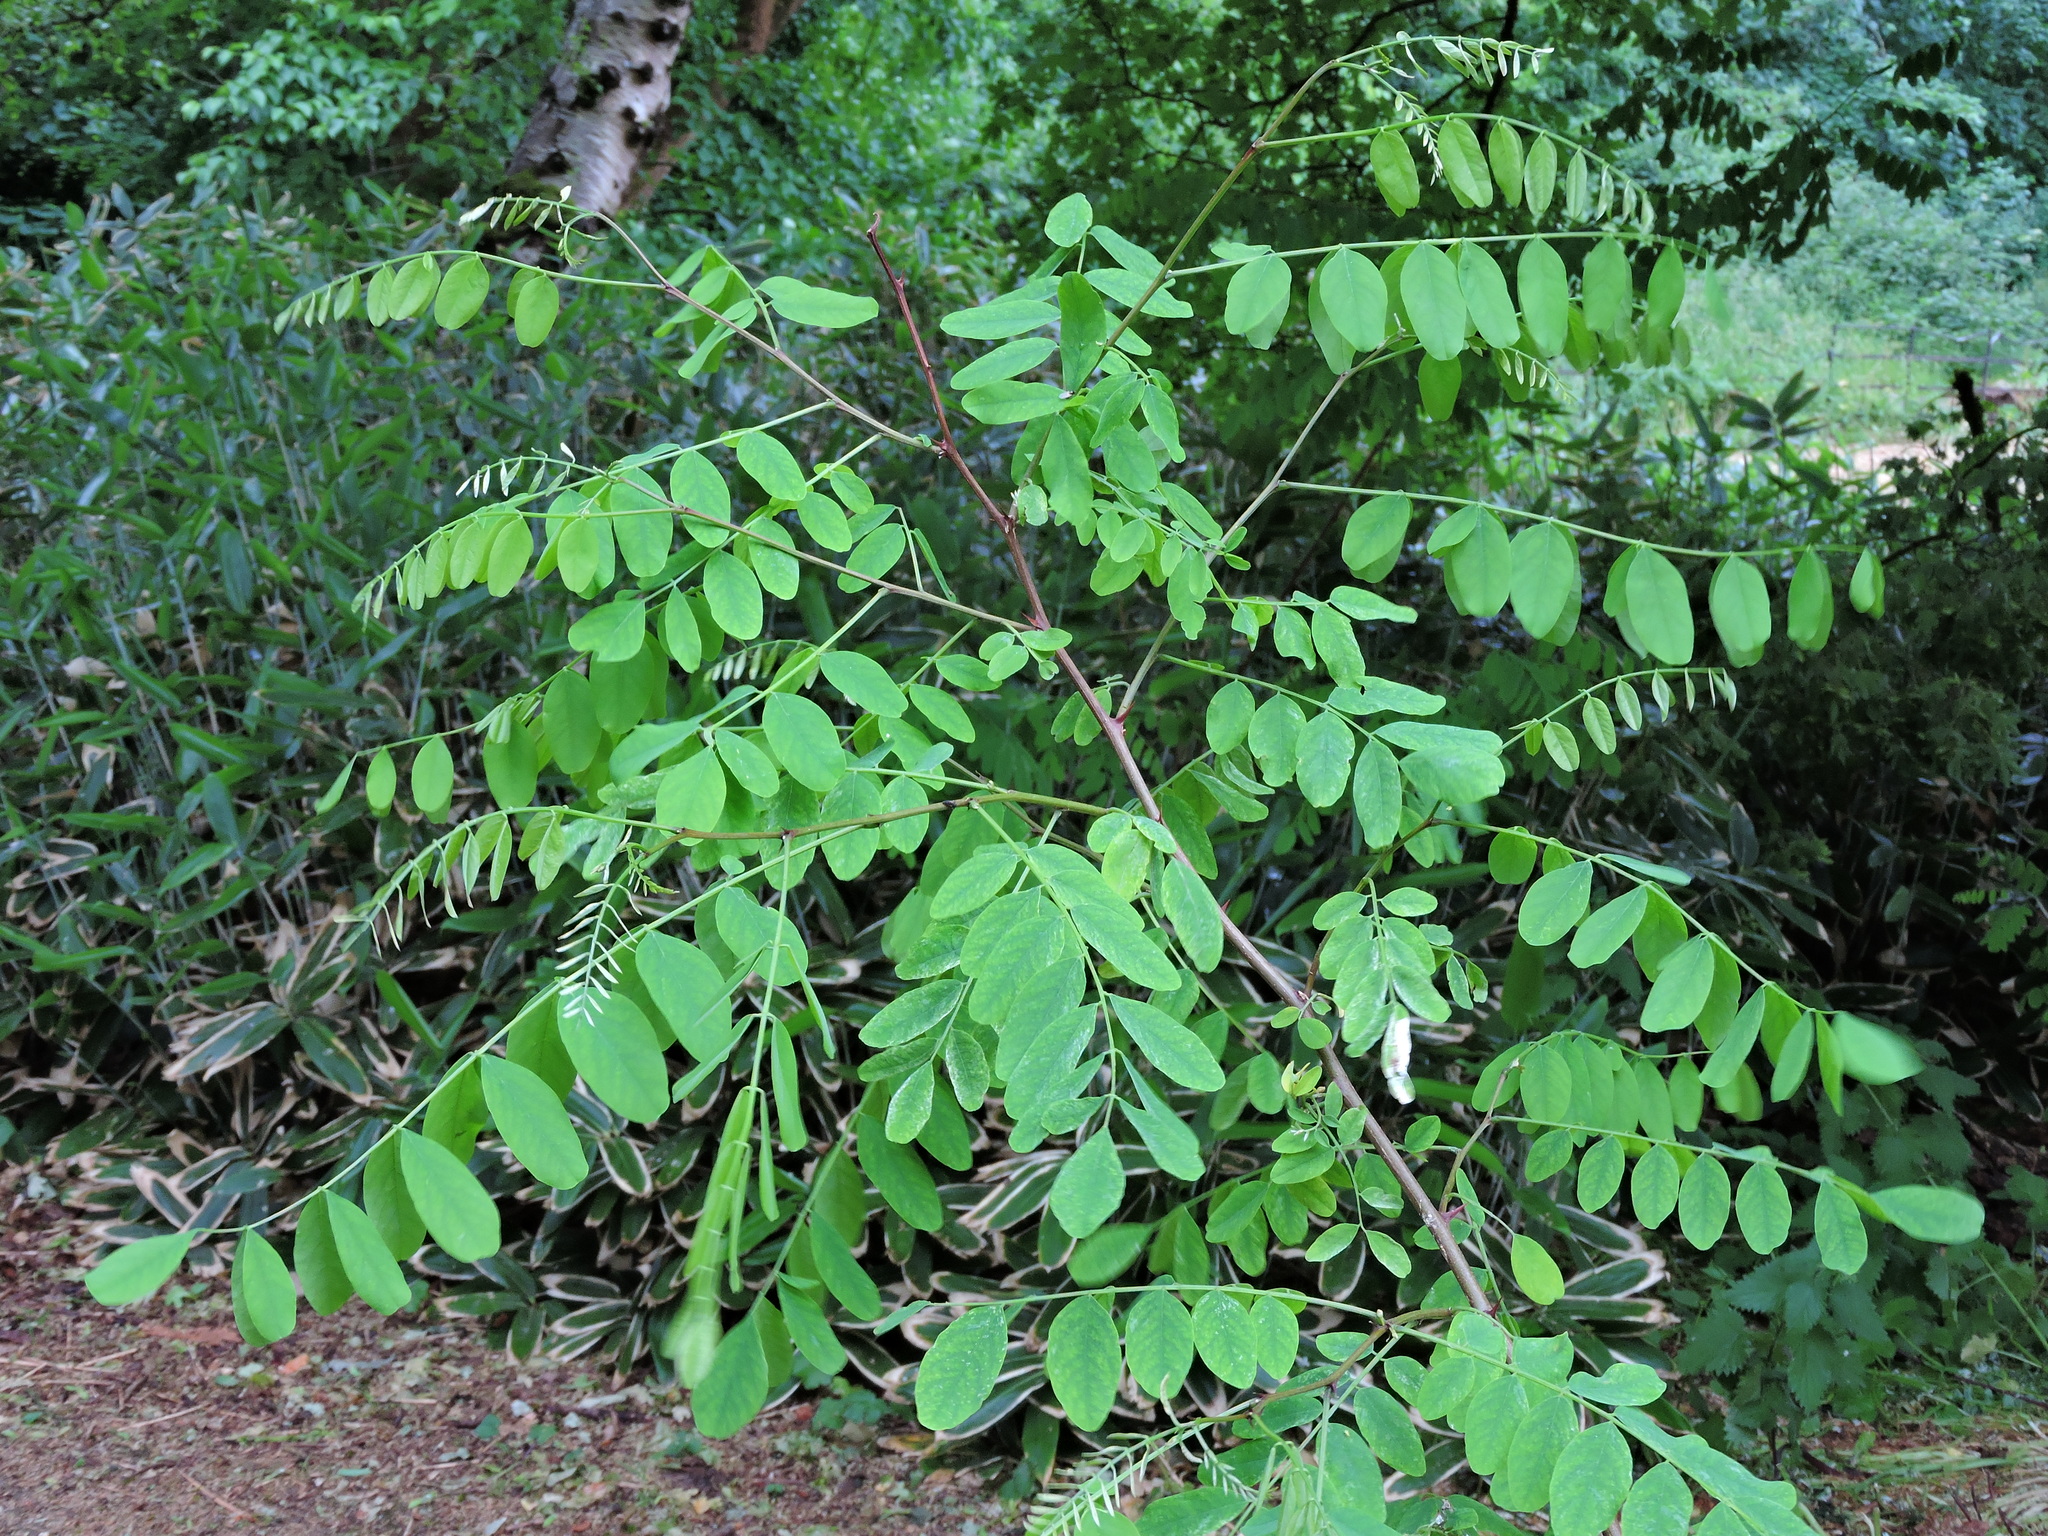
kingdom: Plantae
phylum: Tracheophyta
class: Magnoliopsida
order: Fabales
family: Fabaceae
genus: Robinia
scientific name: Robinia pseudoacacia
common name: Black locust
